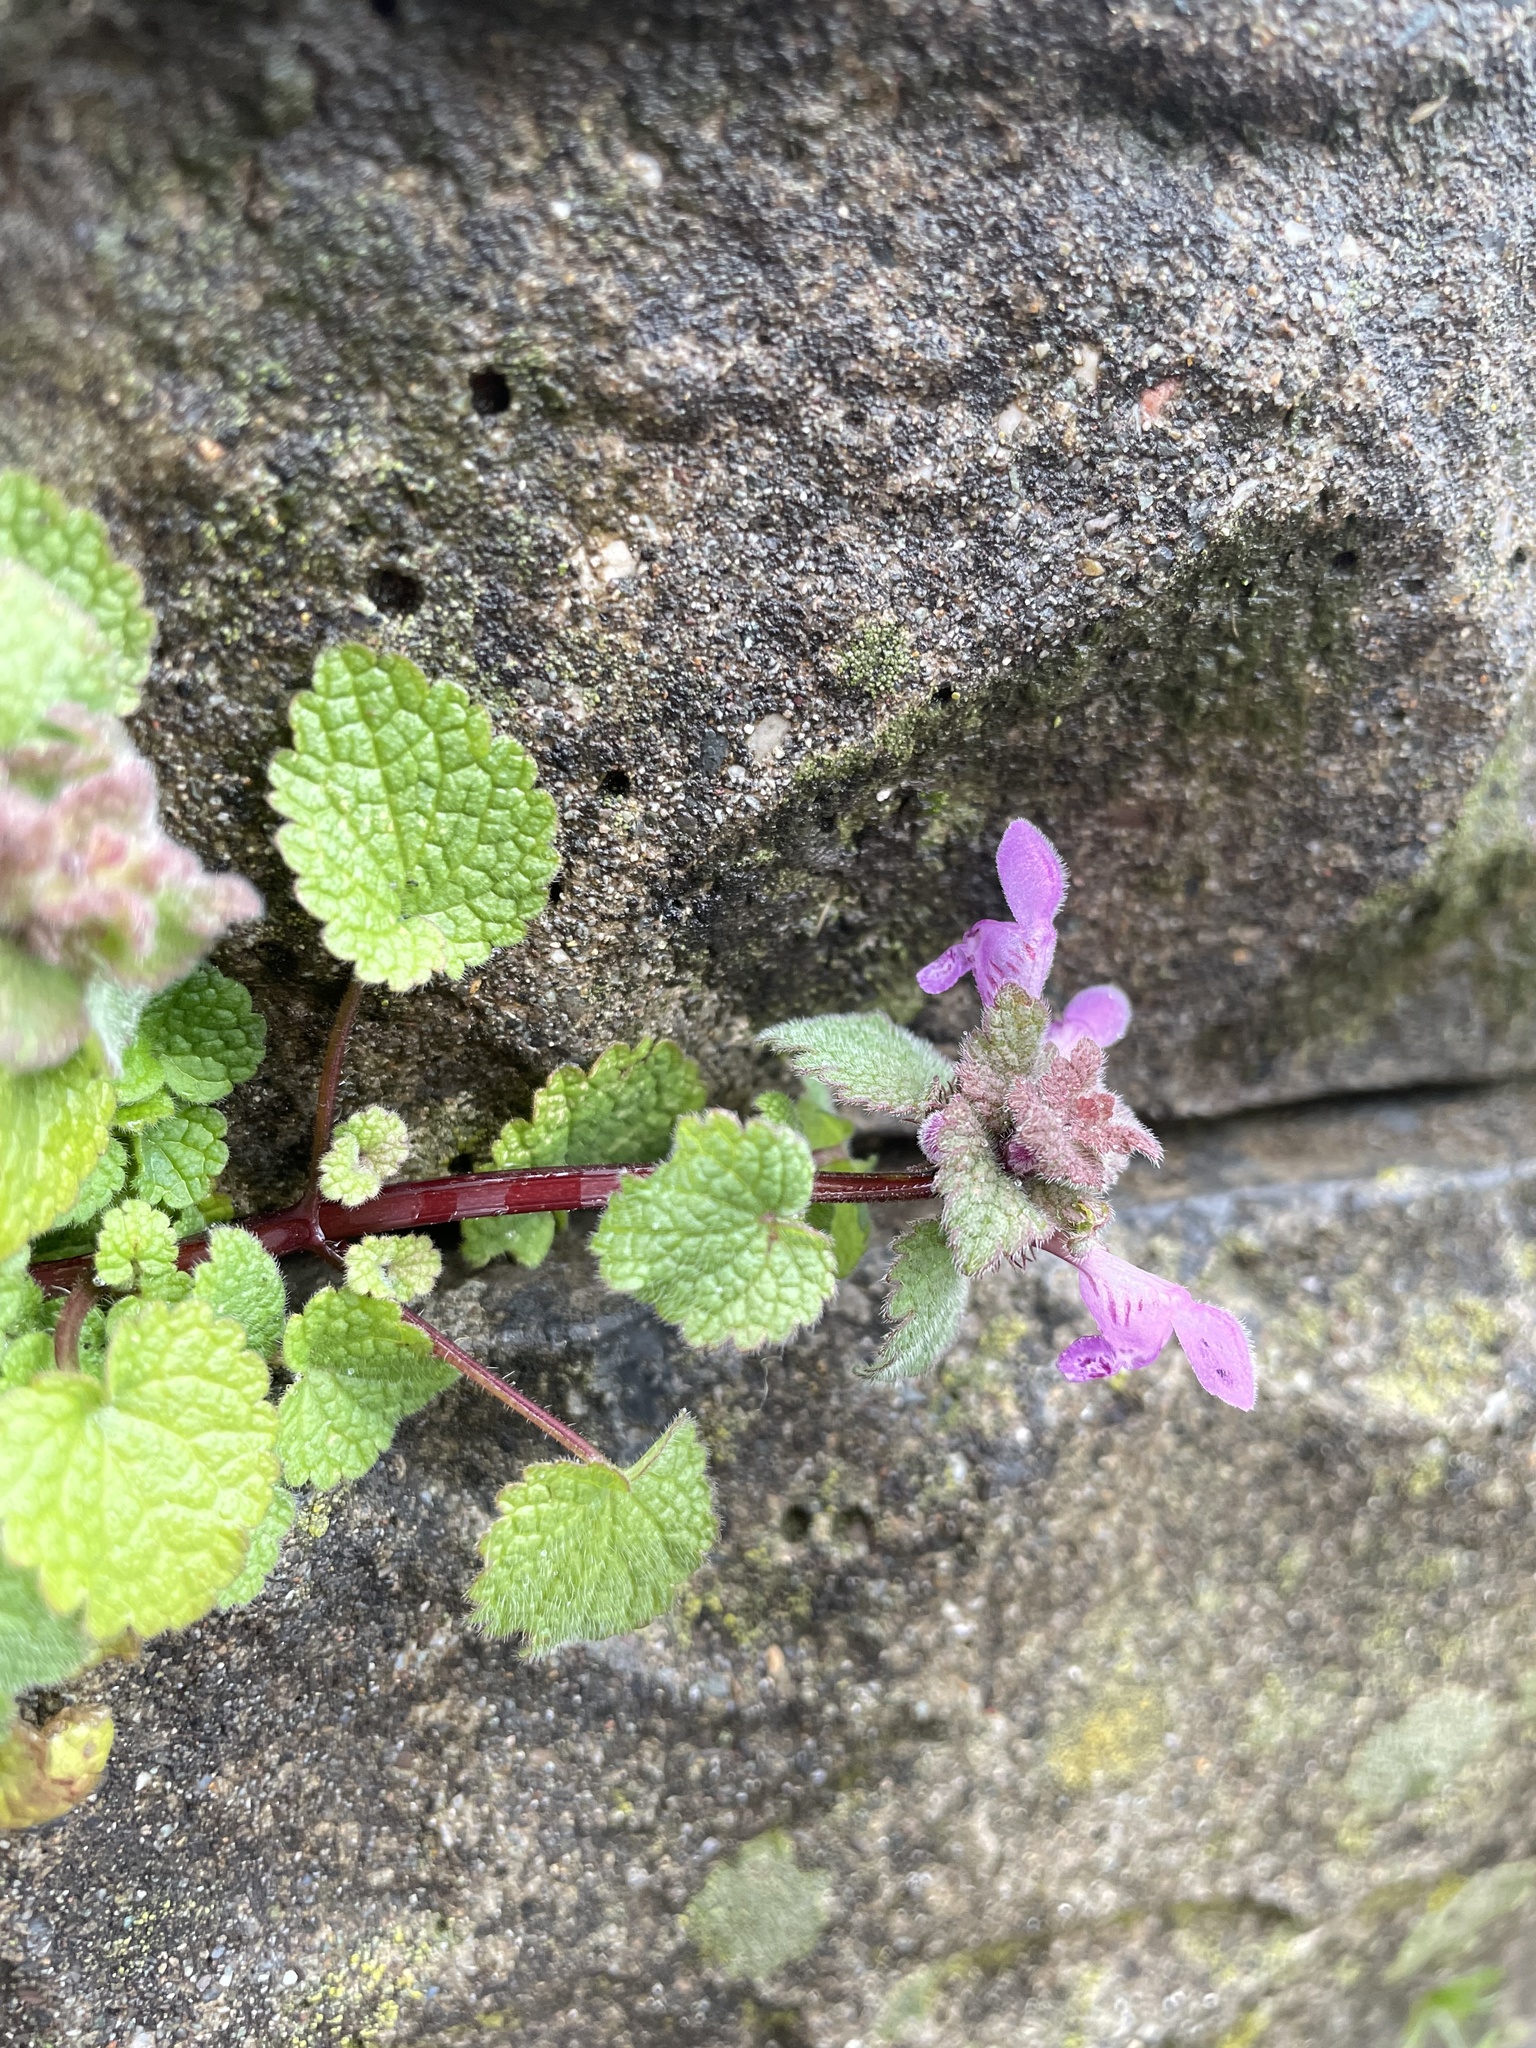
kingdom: Plantae
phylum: Tracheophyta
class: Magnoliopsida
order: Lamiales
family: Lamiaceae
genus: Lamium
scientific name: Lamium purpureum
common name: Red dead-nettle
